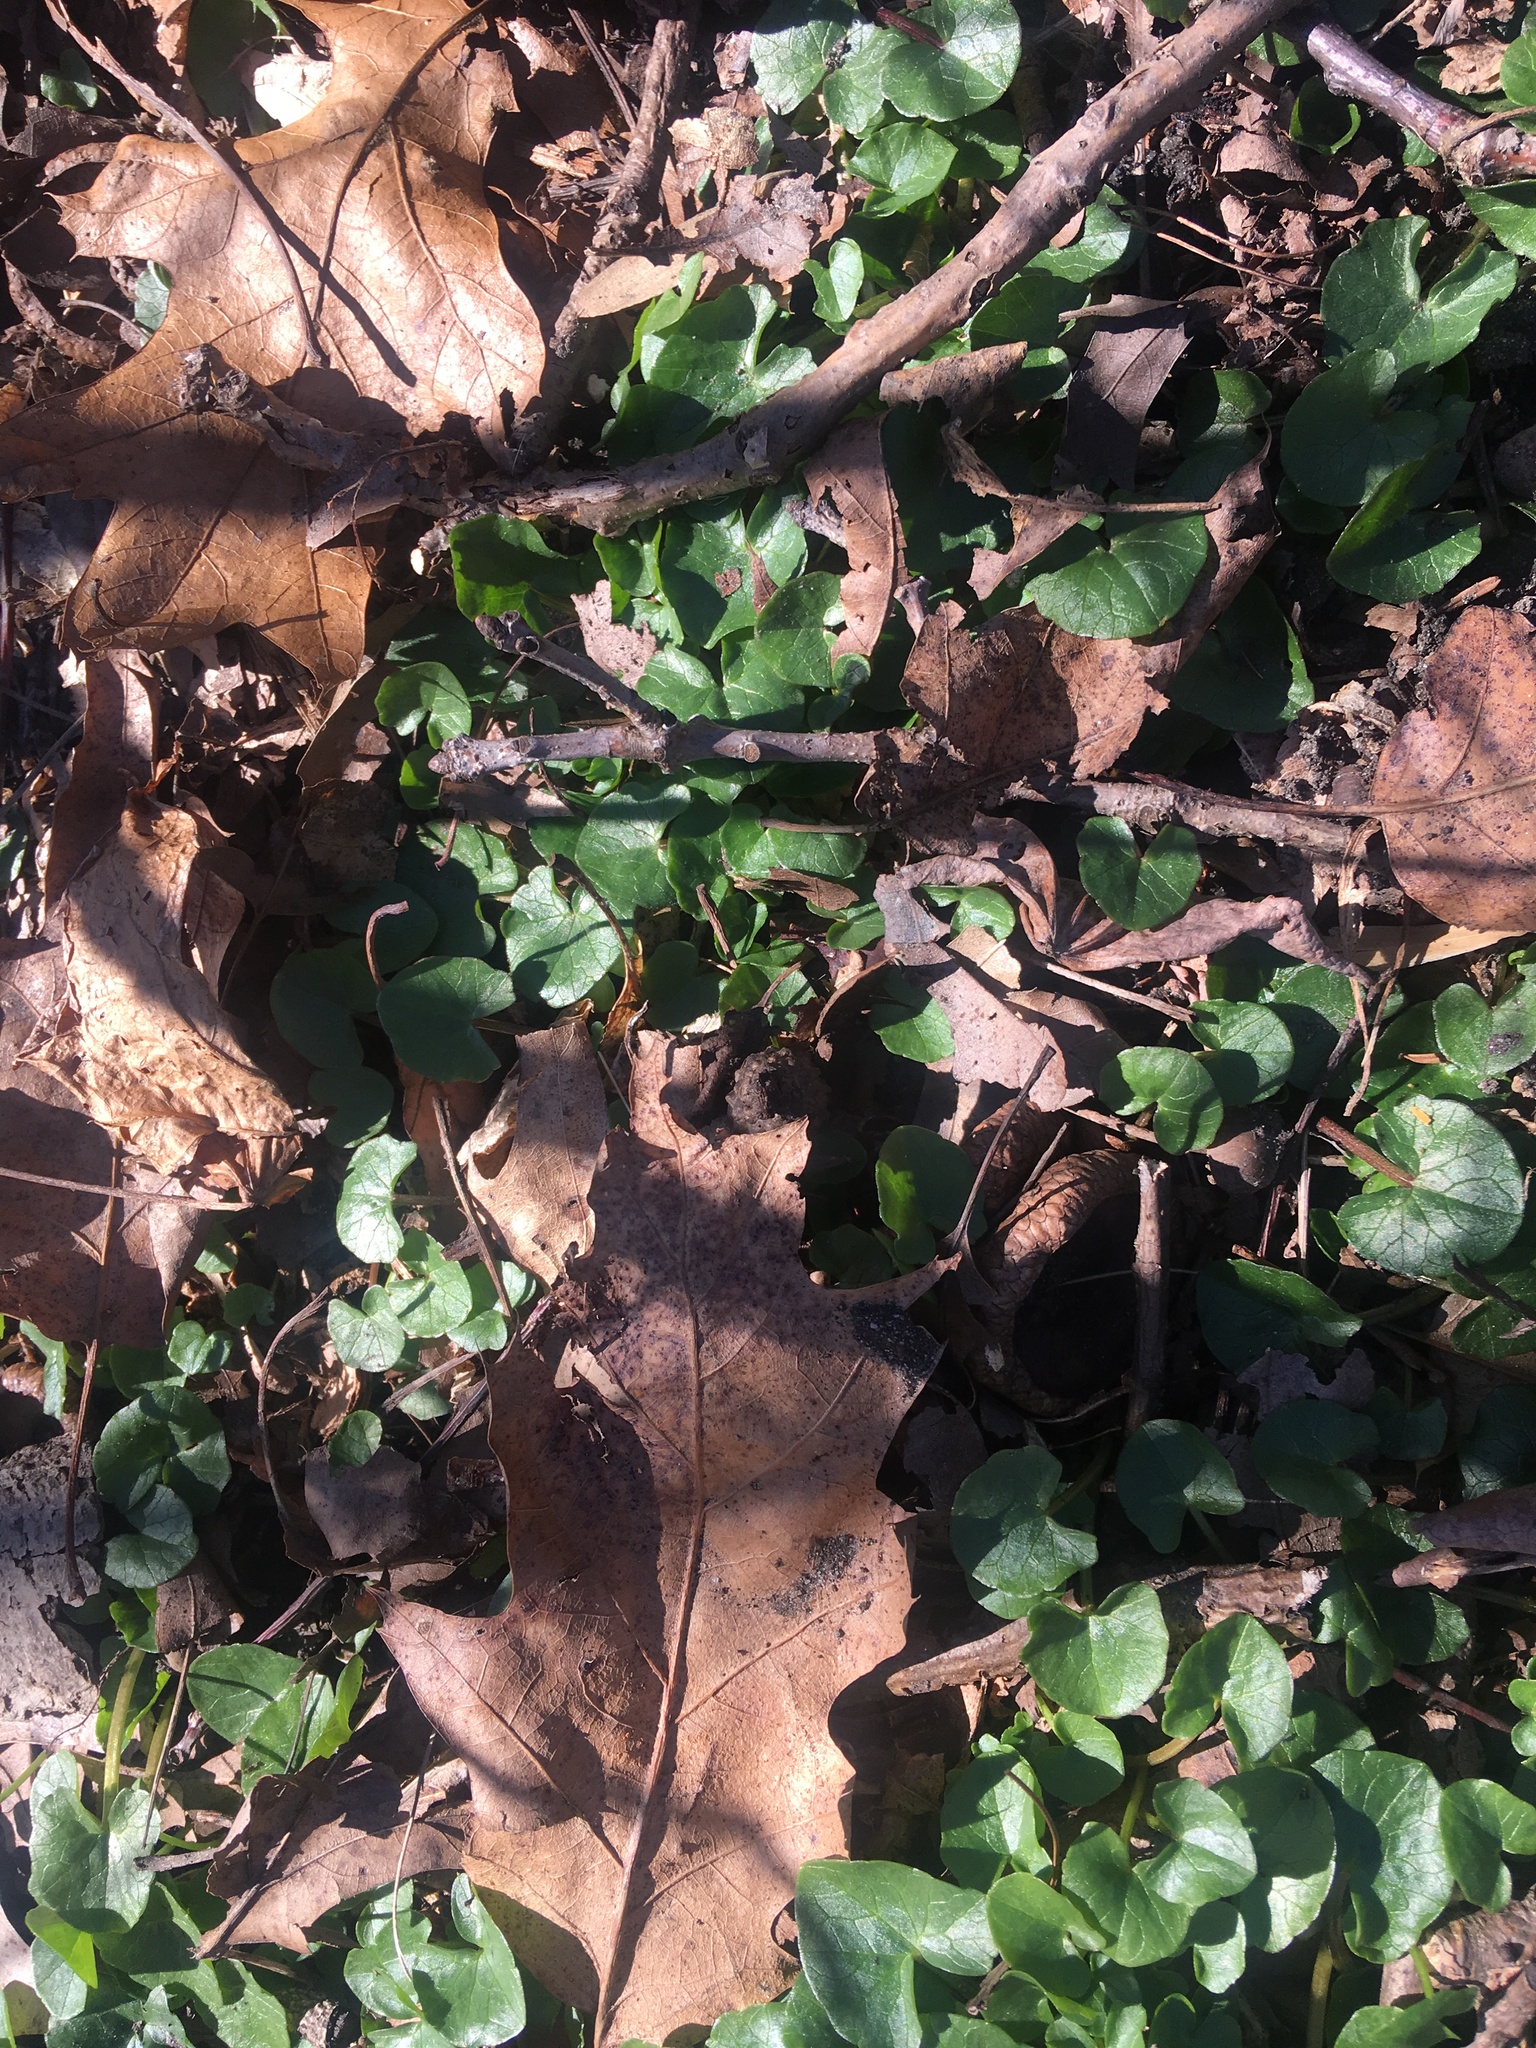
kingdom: Plantae
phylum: Tracheophyta
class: Magnoliopsida
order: Ranunculales
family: Ranunculaceae
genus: Ficaria
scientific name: Ficaria verna
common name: Lesser celandine
